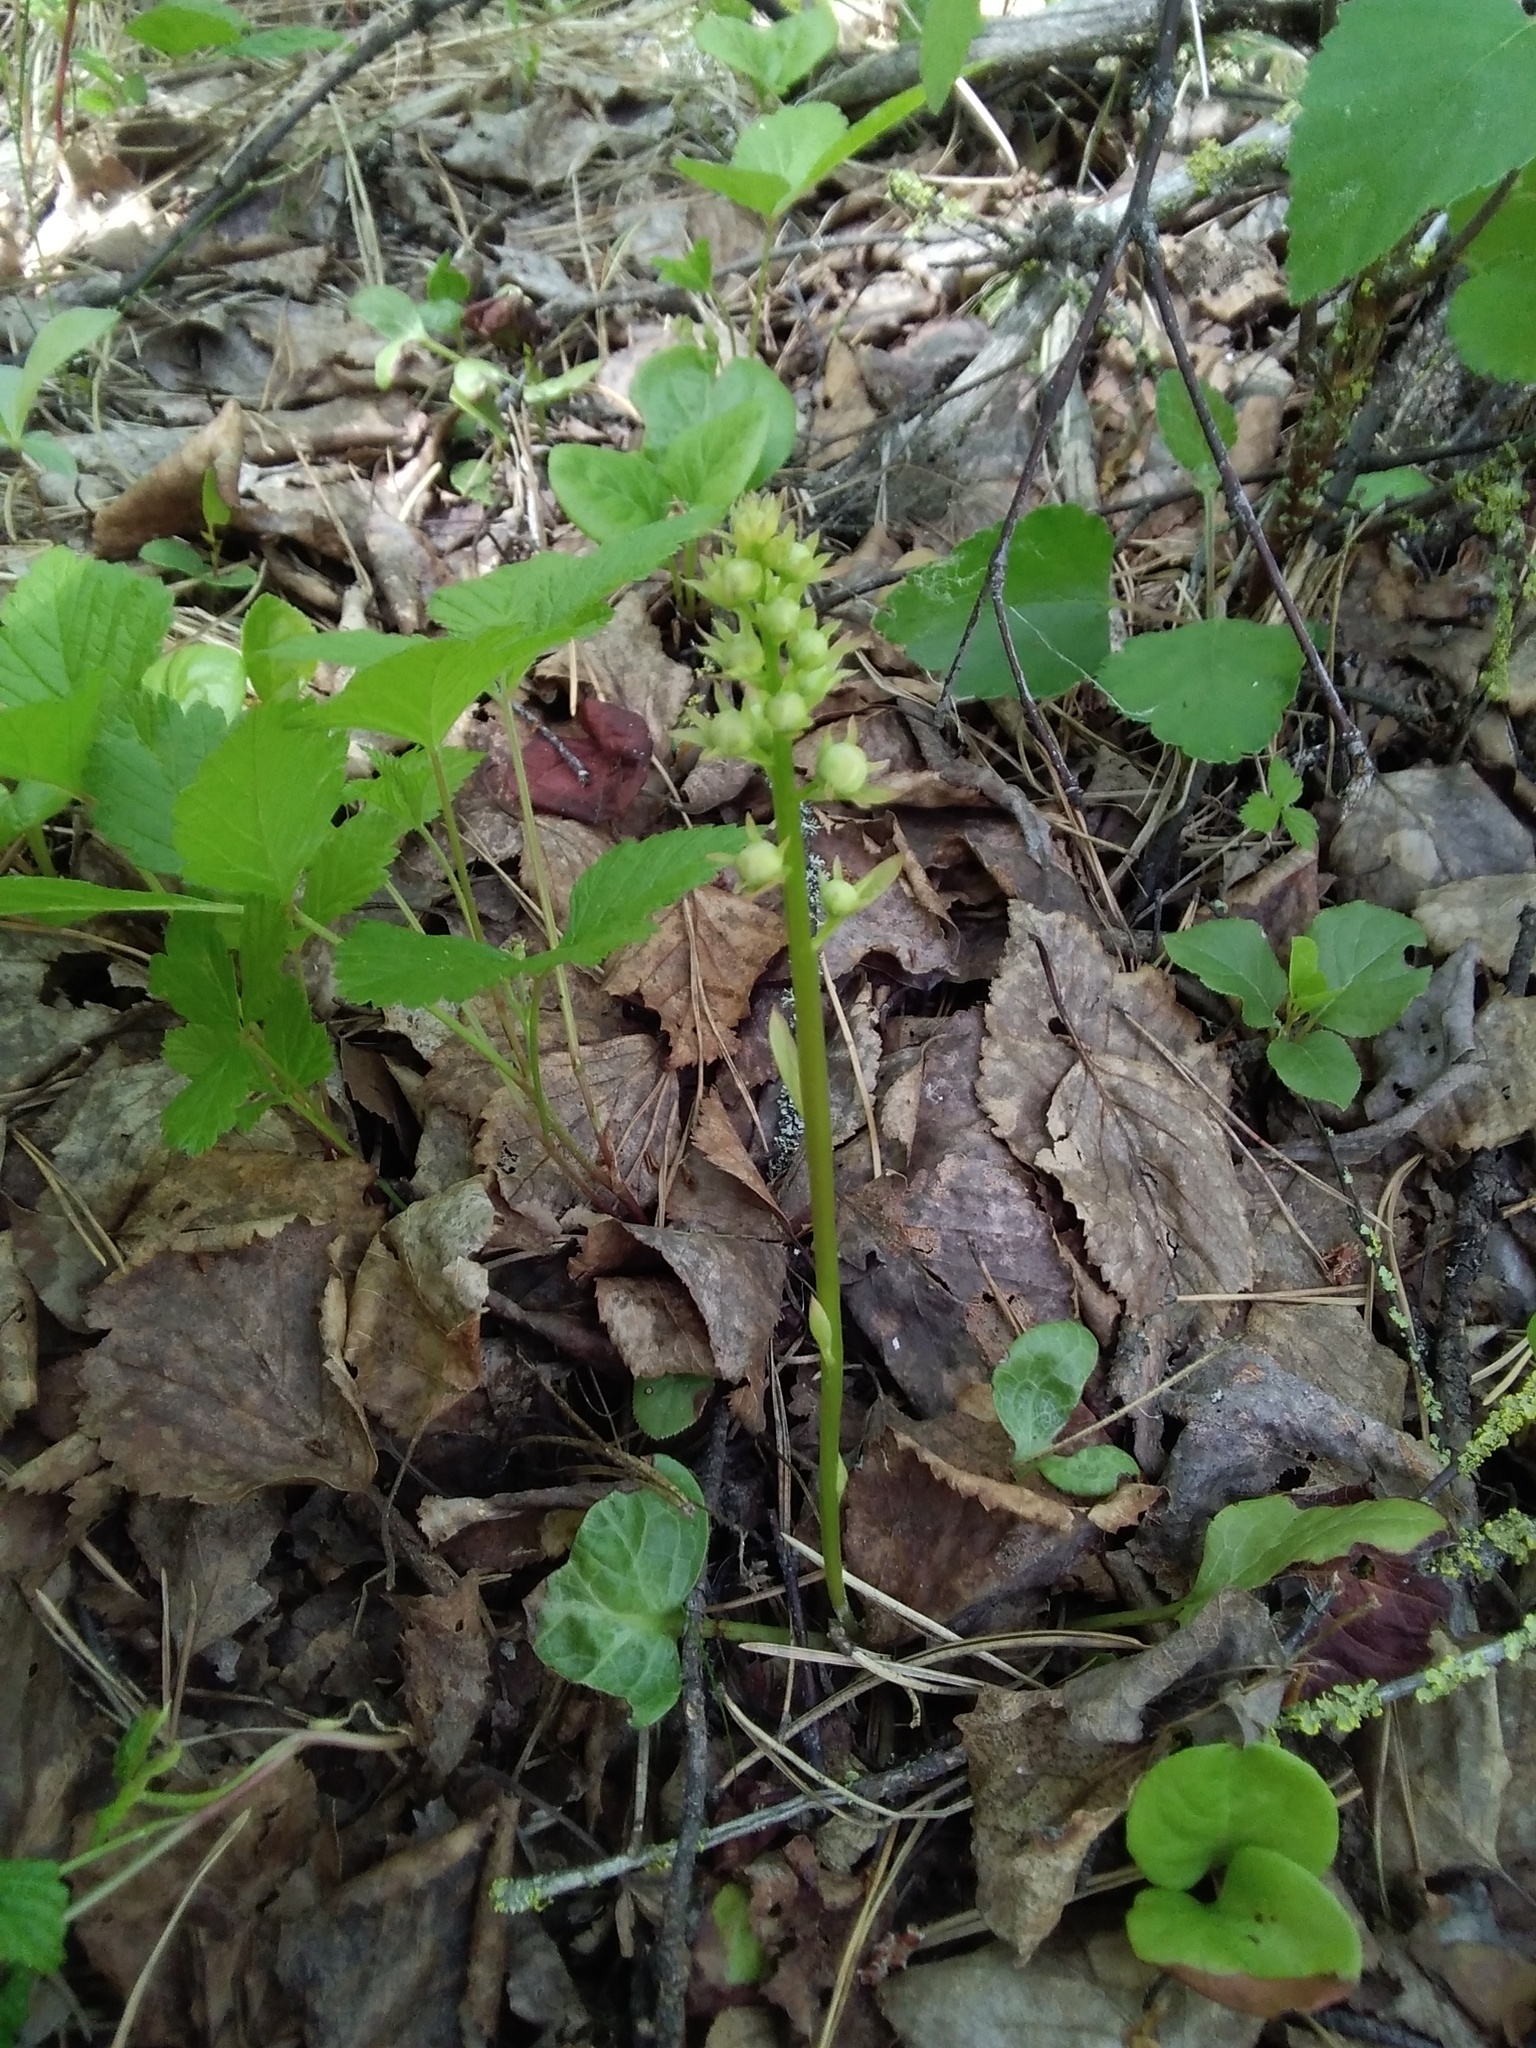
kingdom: Plantae
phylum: Tracheophyta
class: Magnoliopsida
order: Ericales
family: Ericaceae
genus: Pyrola
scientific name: Pyrola rotundifolia
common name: Round-leaved wintergreen
